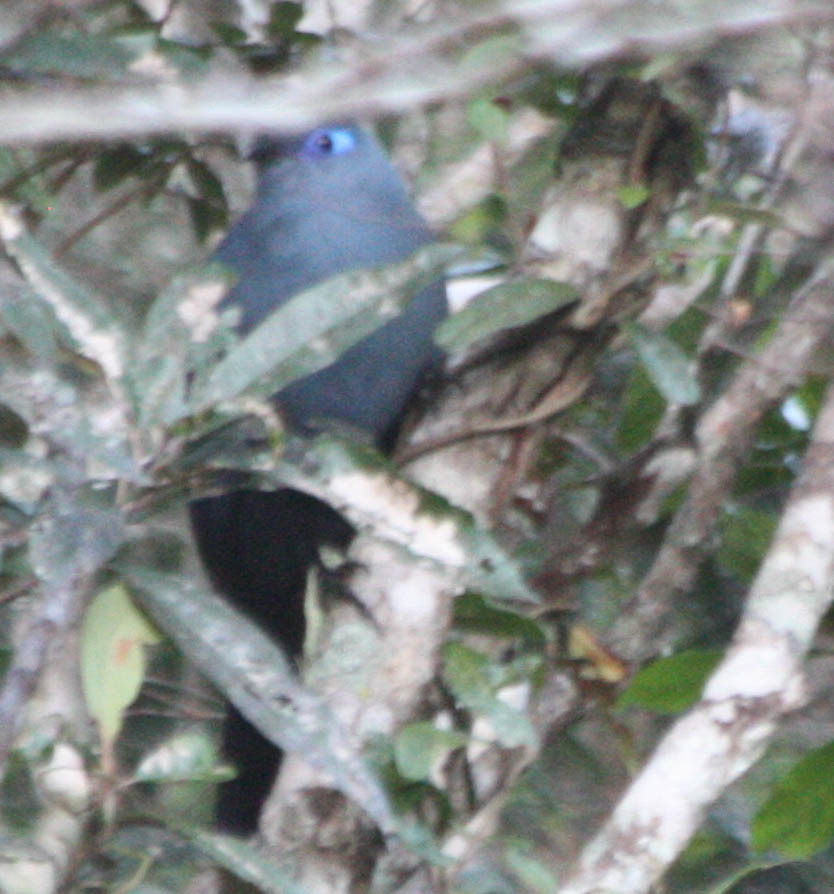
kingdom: Animalia
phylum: Chordata
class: Aves
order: Cuculiformes
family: Cuculidae
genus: Coua
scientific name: Coua caerulea
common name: Blue coua
